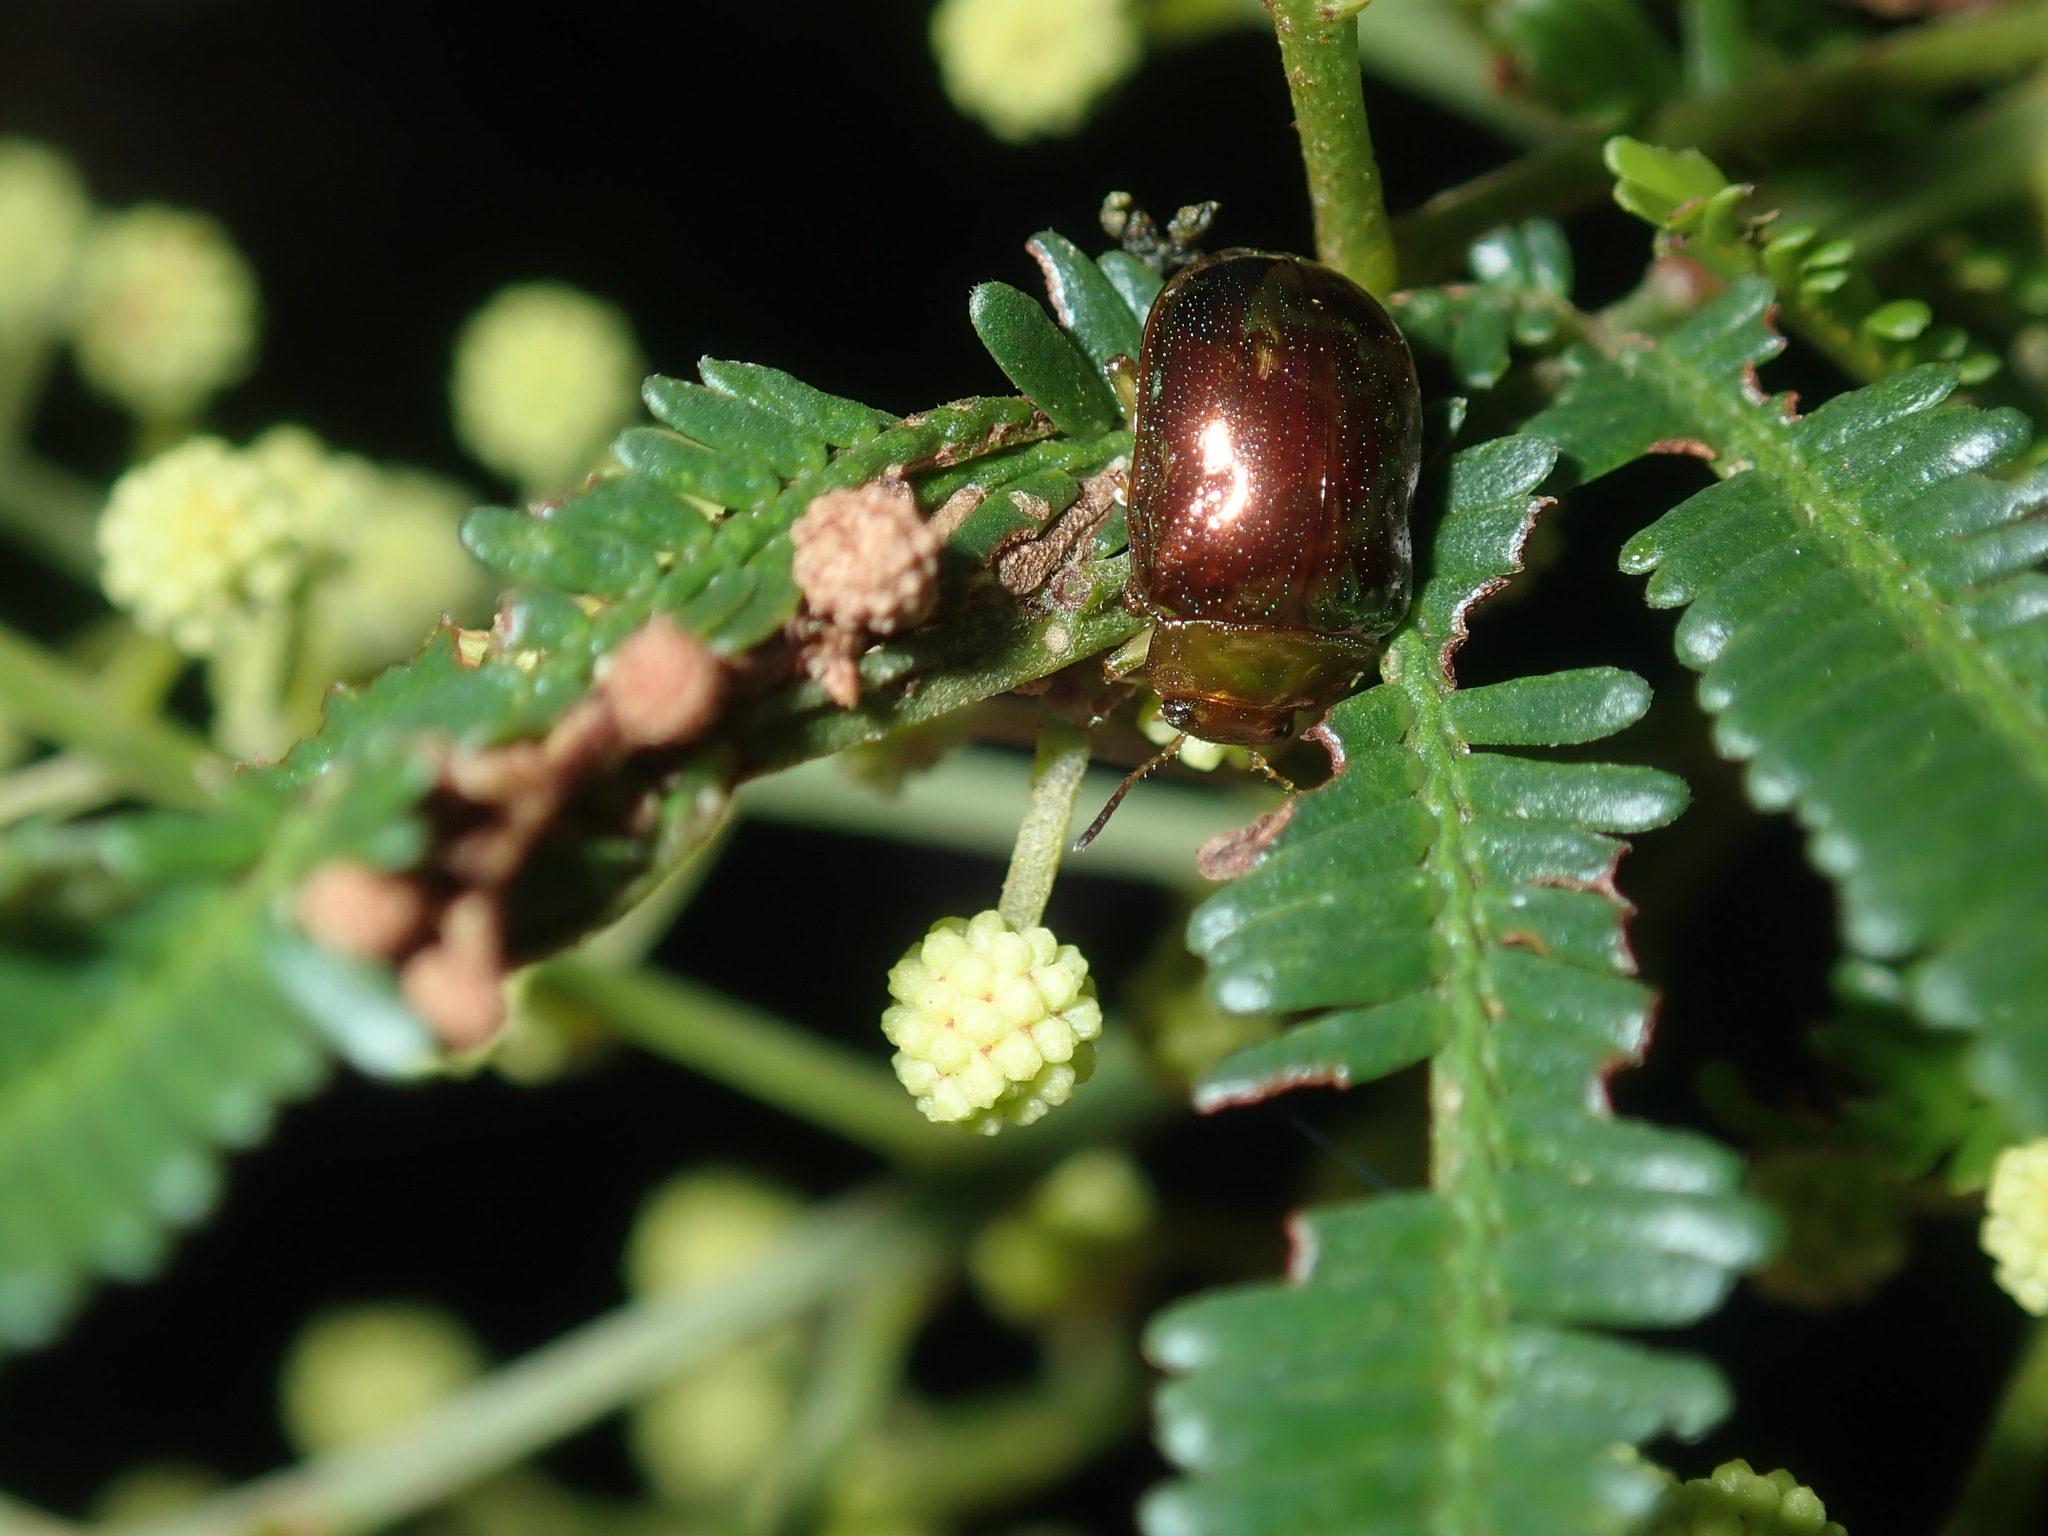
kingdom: Animalia
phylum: Arthropoda
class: Insecta
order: Coleoptera
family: Chrysomelidae
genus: Calomela
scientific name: Calomela
